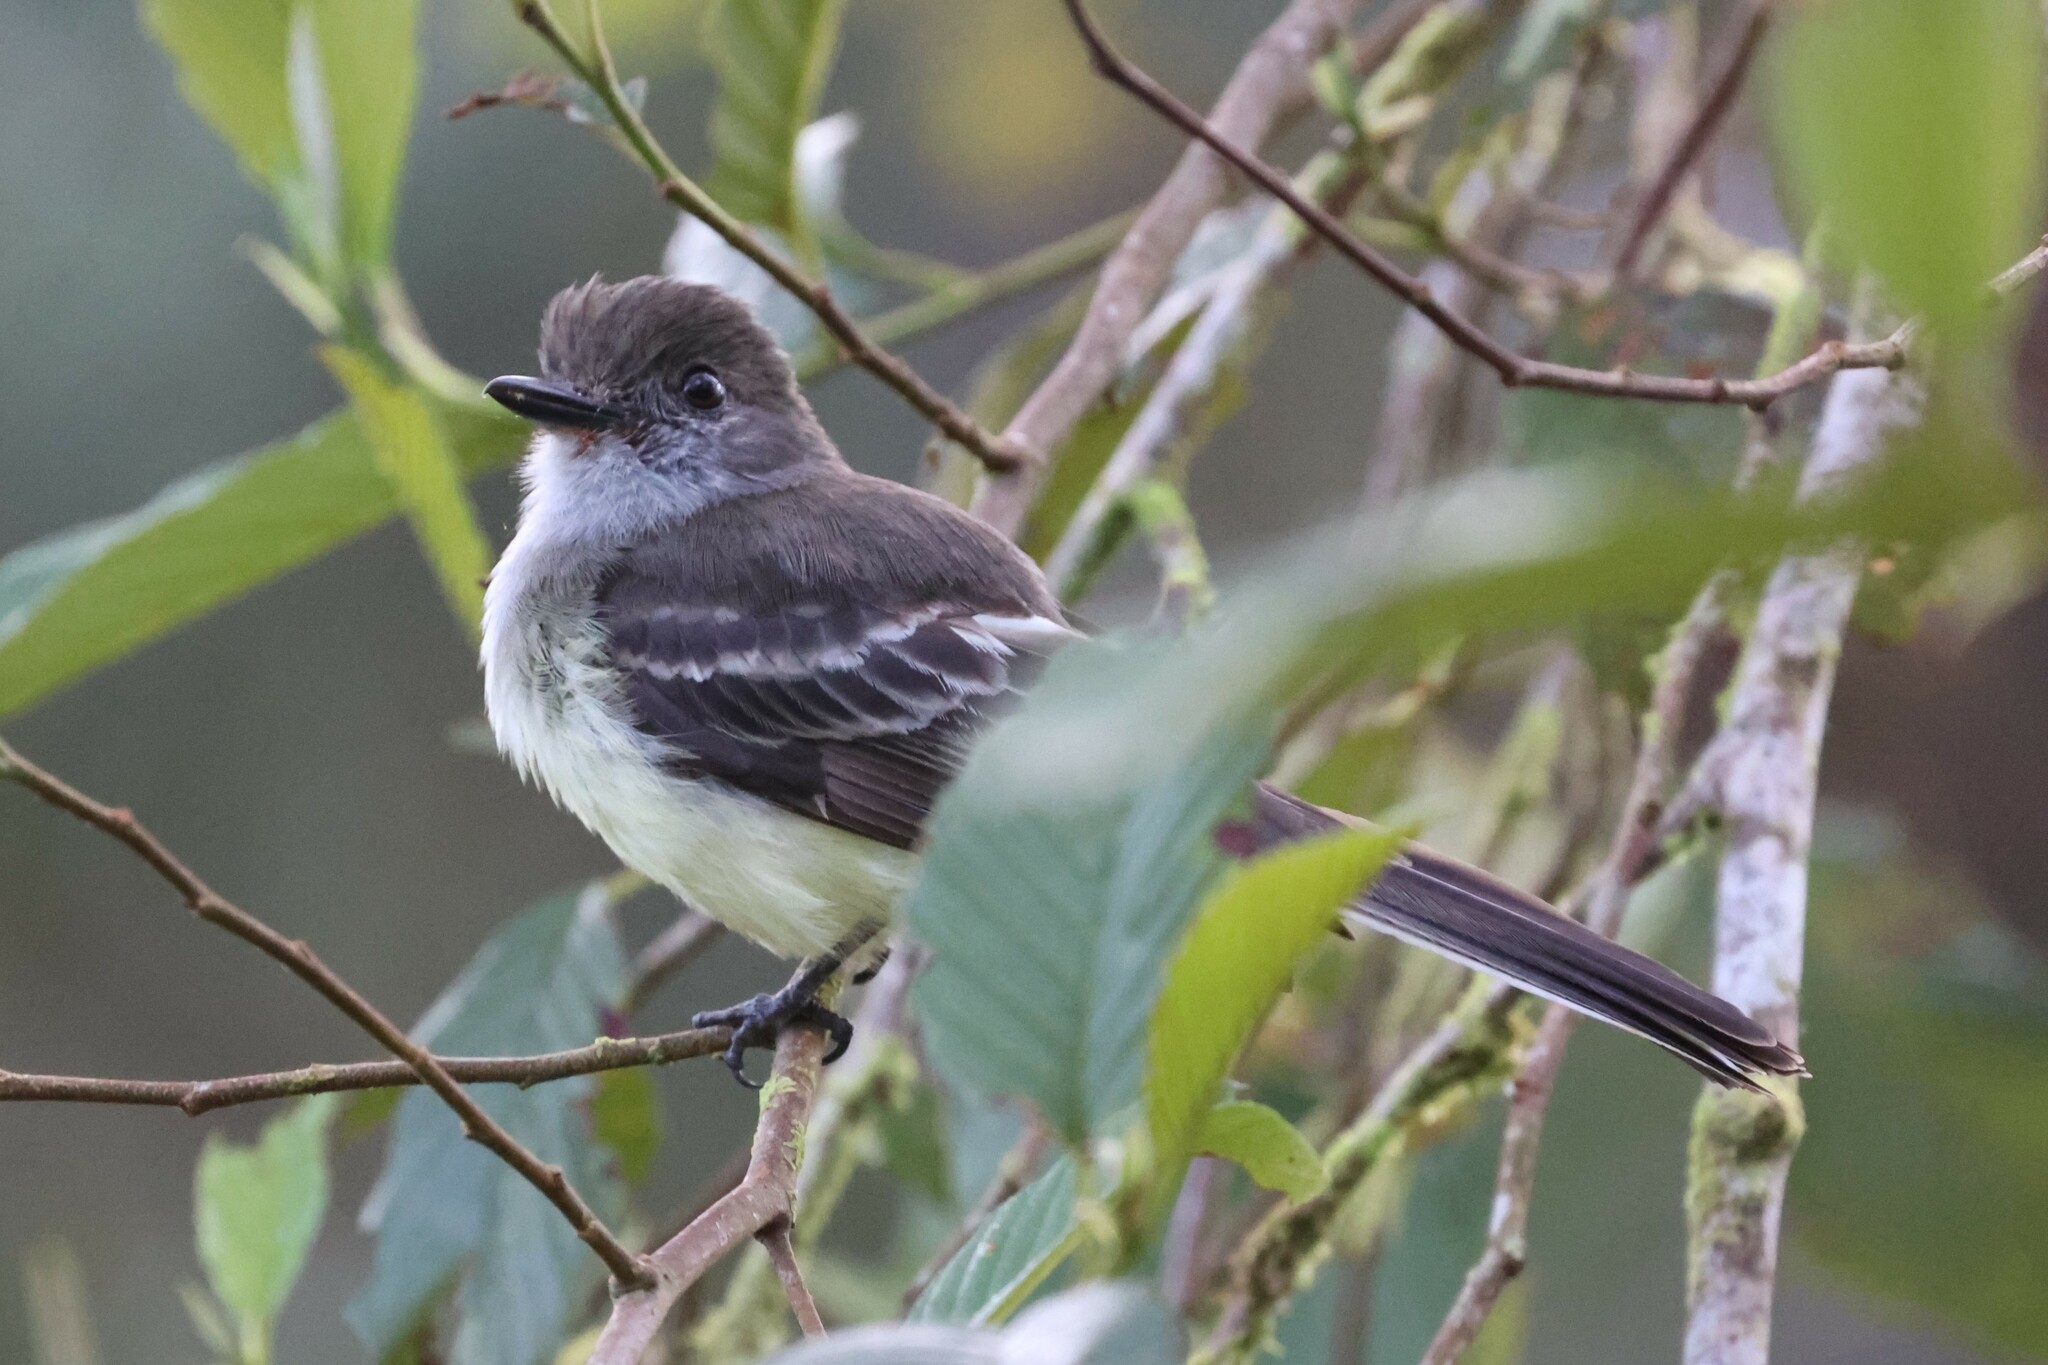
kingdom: Animalia
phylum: Chordata
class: Aves
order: Passeriformes
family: Tyrannidae
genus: Myiarchus
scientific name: Myiarchus cephalotes
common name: Pale-edged flycatcher
